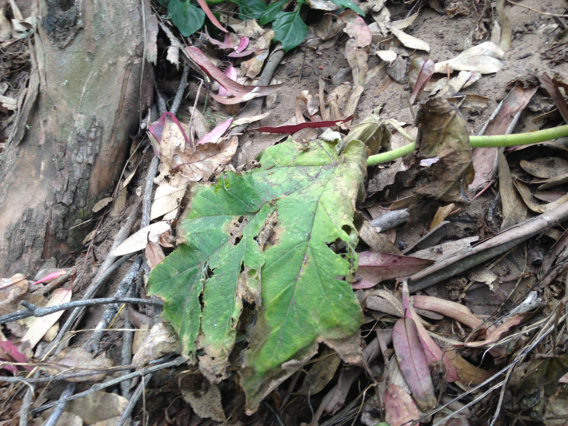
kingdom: Plantae
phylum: Tracheophyta
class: Magnoliopsida
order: Apiales
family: Apiaceae
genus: Heracleum
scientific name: Heracleum maximum
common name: American cow parsnip
